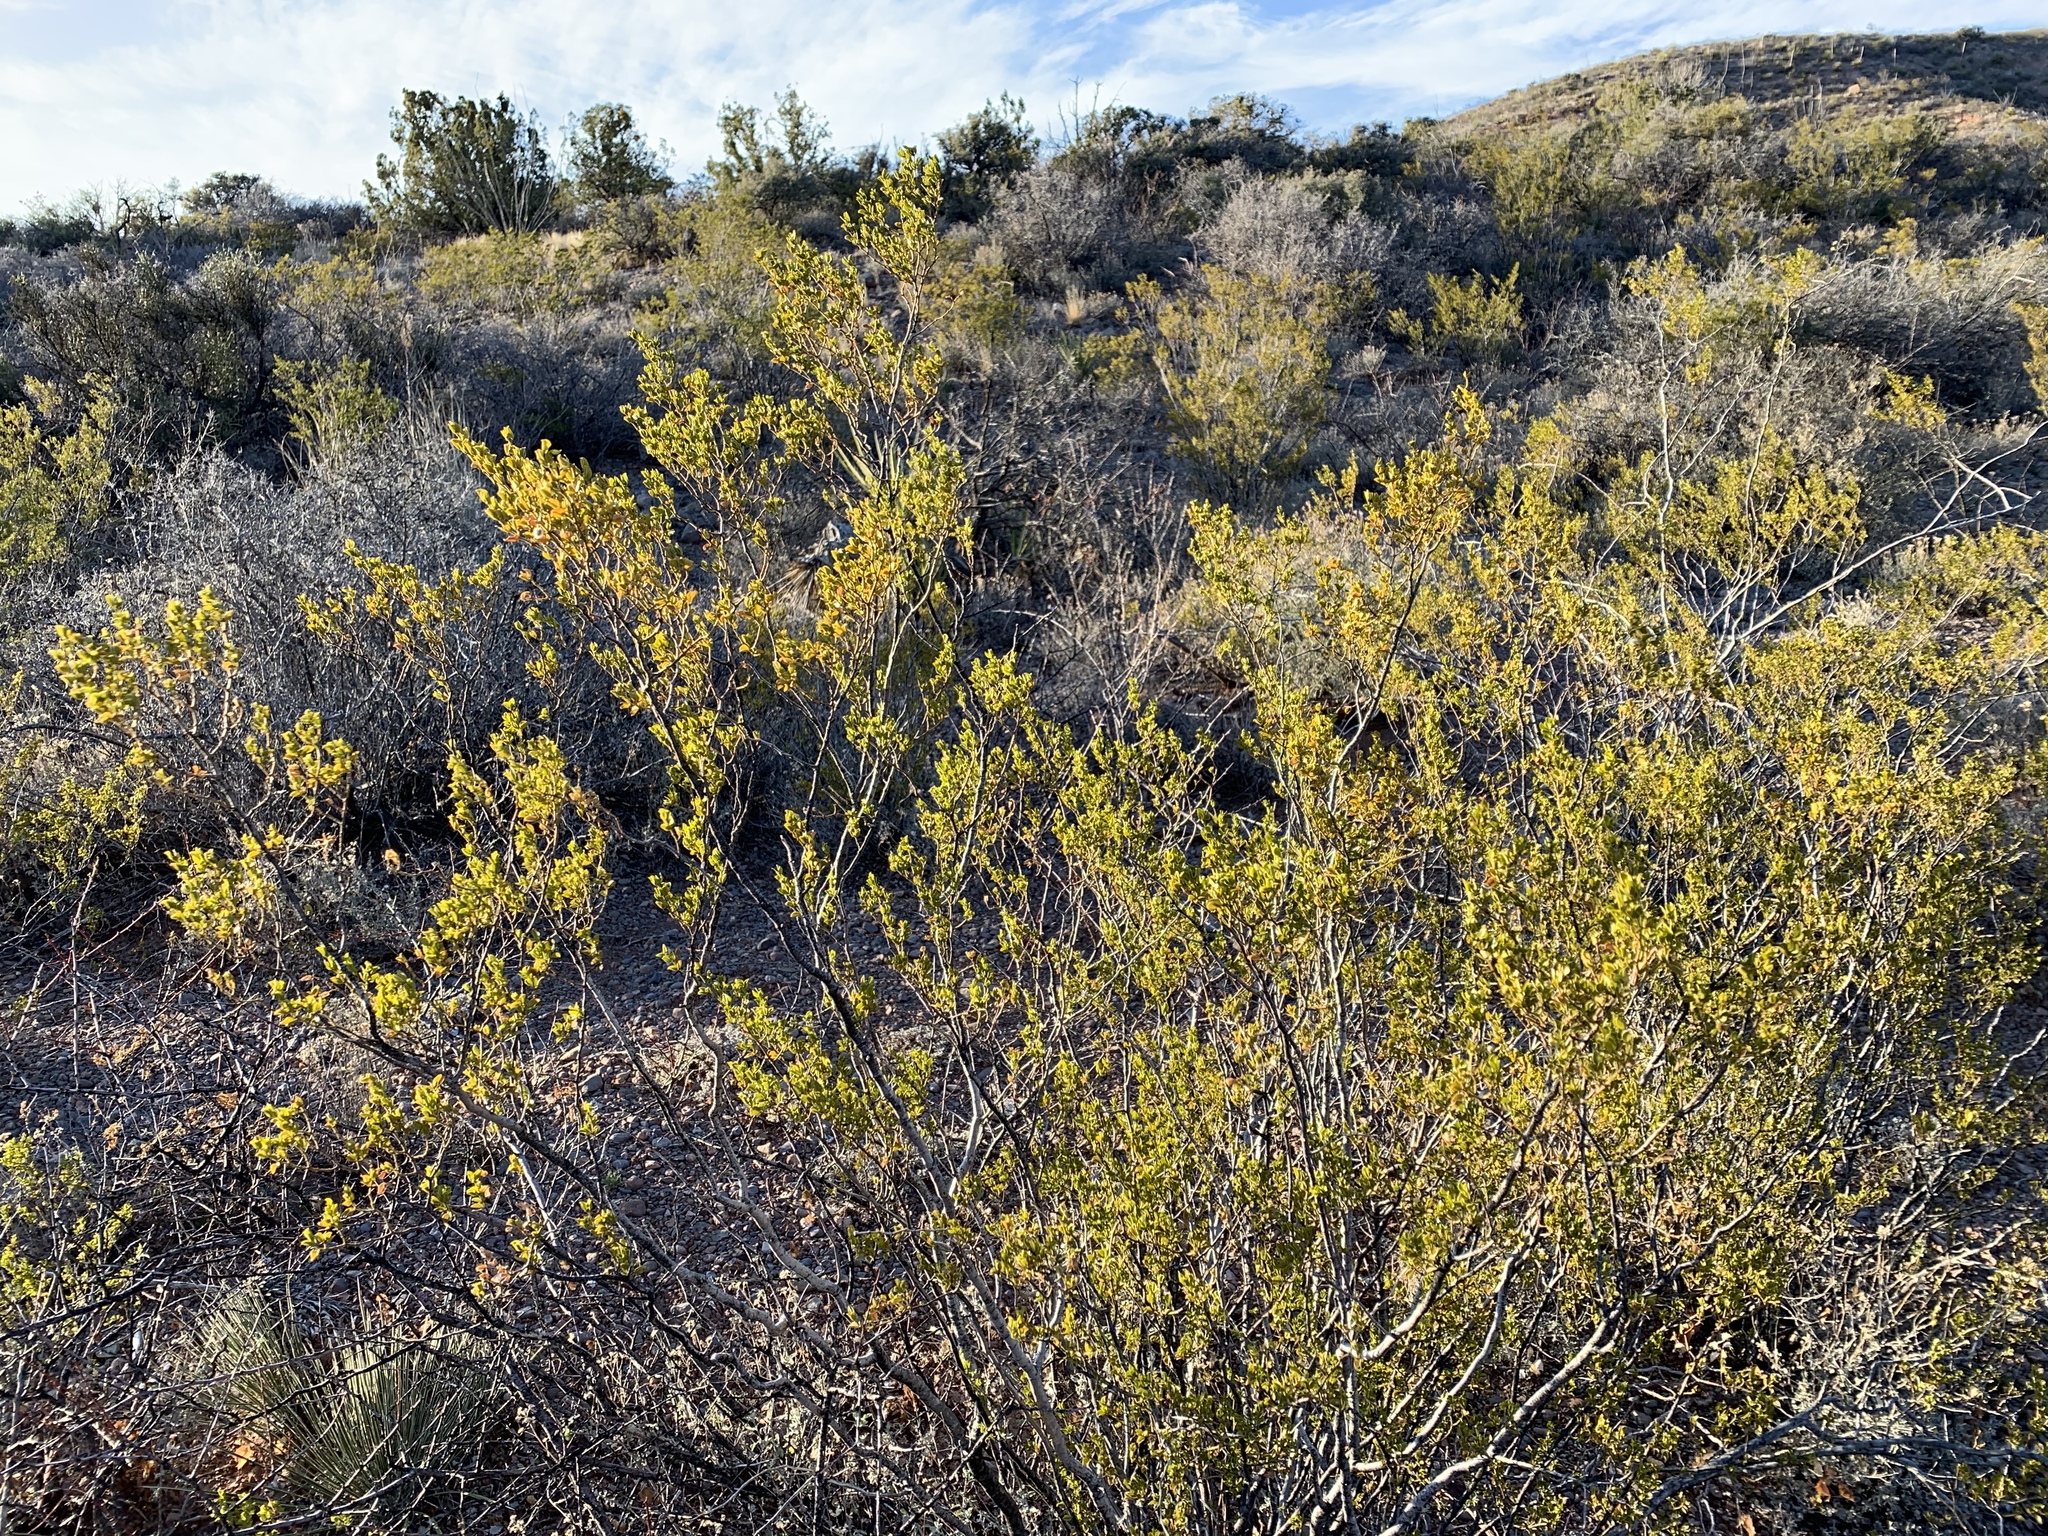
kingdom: Plantae
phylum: Tracheophyta
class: Magnoliopsida
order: Zygophyllales
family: Zygophyllaceae
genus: Larrea
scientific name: Larrea tridentata
